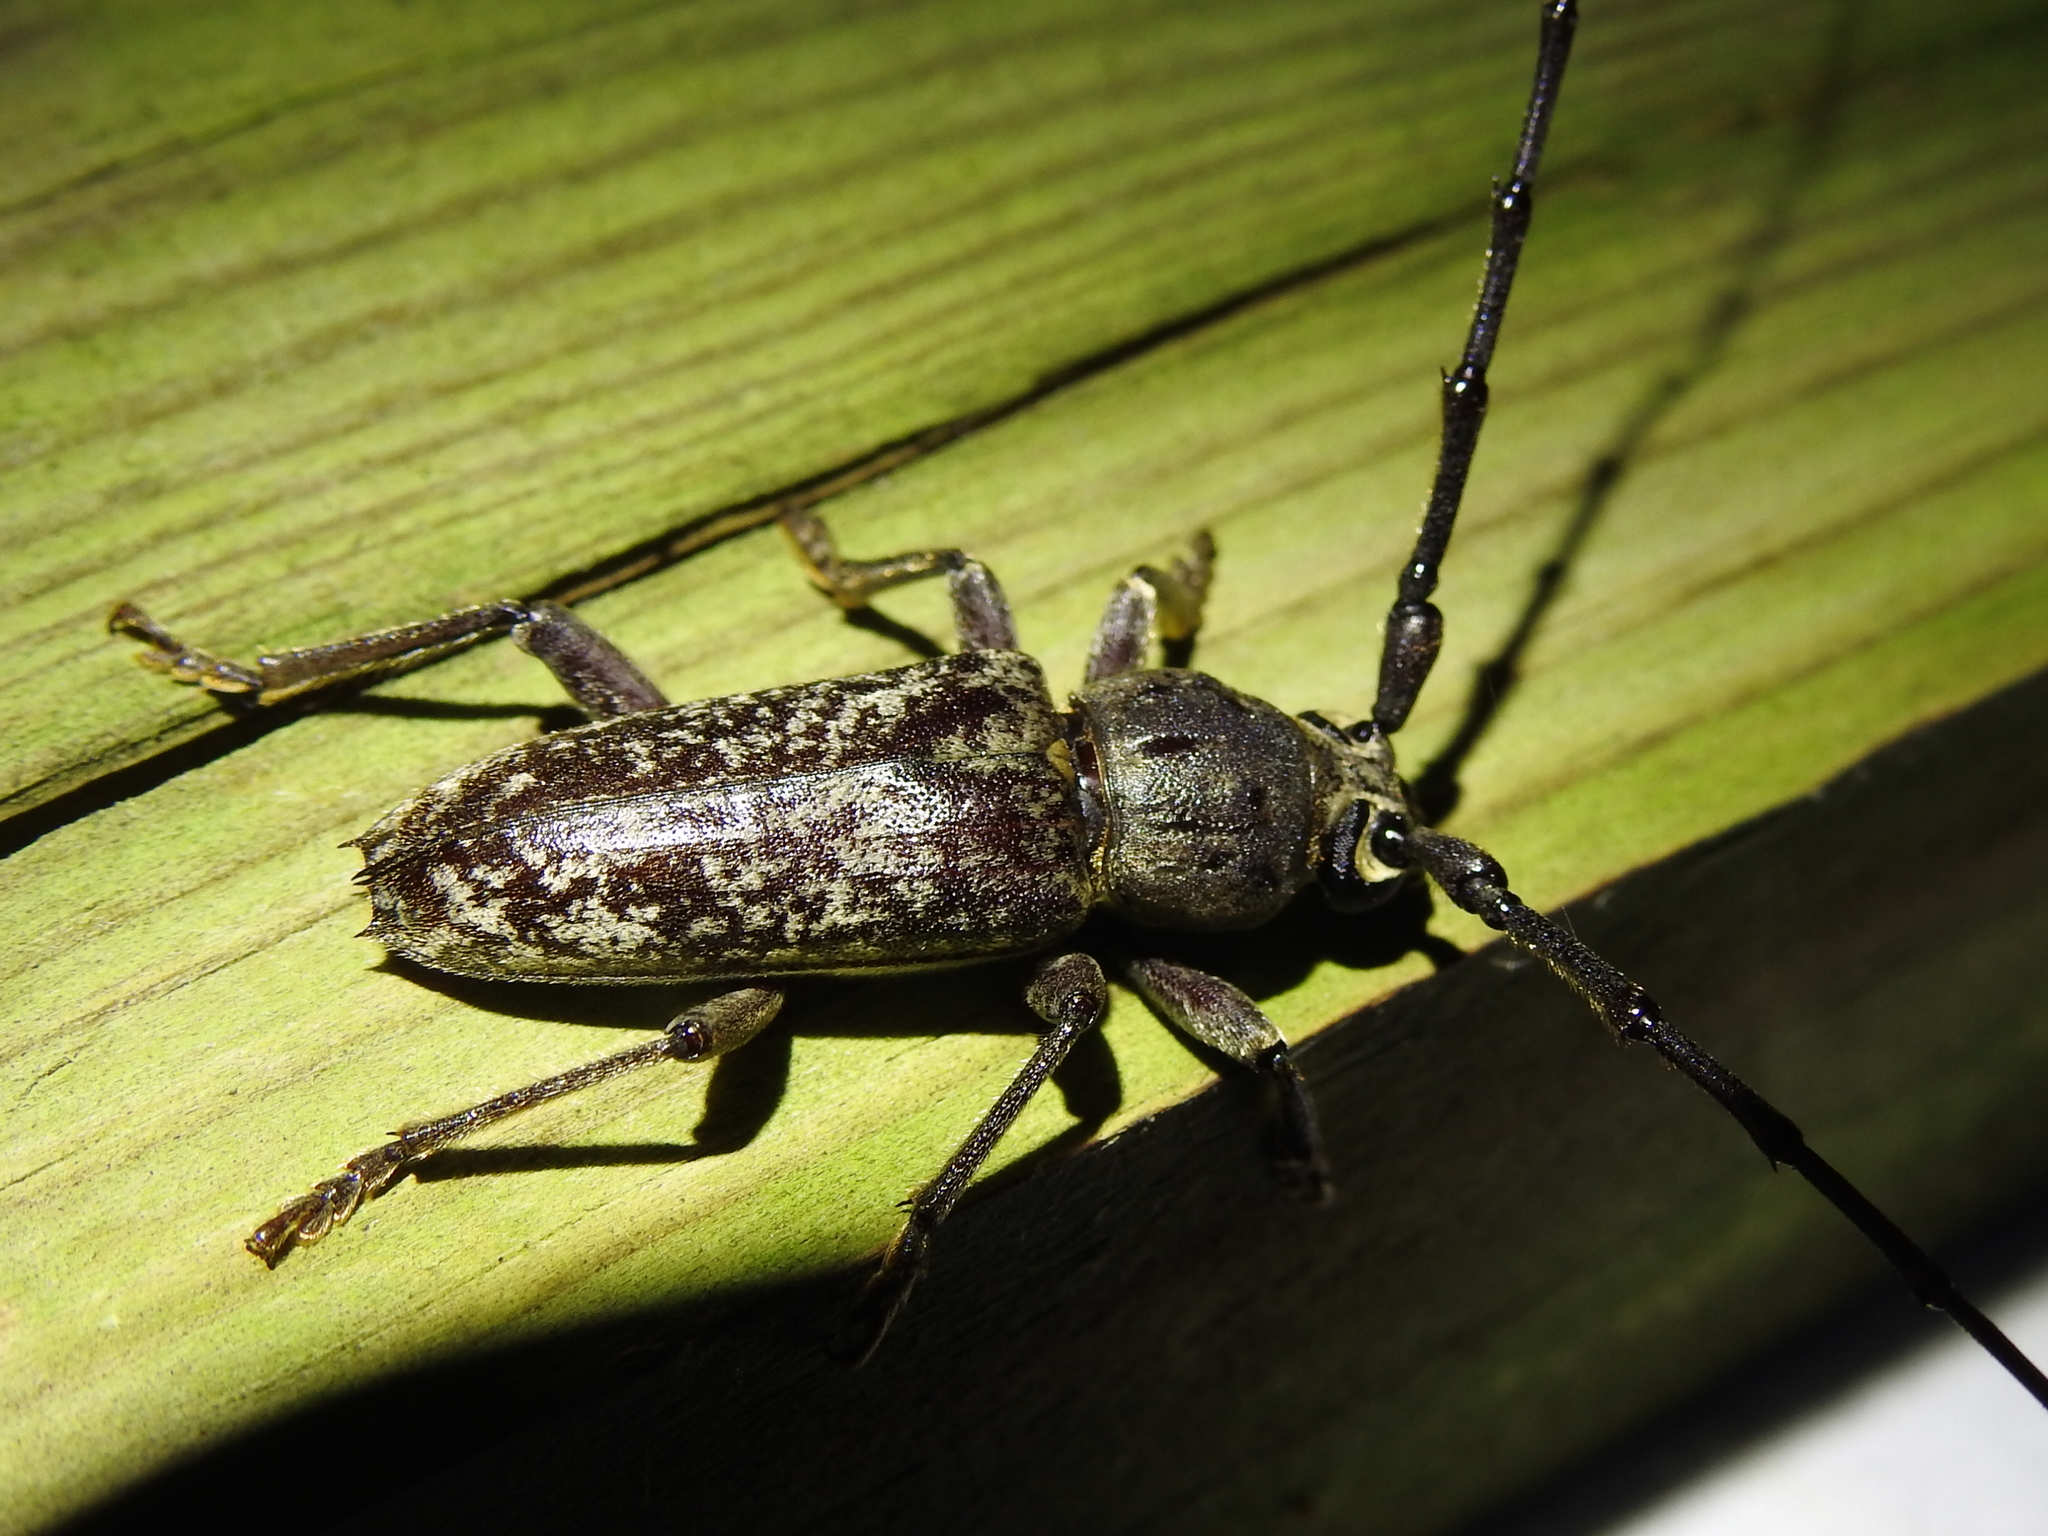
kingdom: Animalia
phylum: Arthropoda
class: Insecta
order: Coleoptera
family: Cerambycidae
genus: Enaphalodes
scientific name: Enaphalodes atomarius
